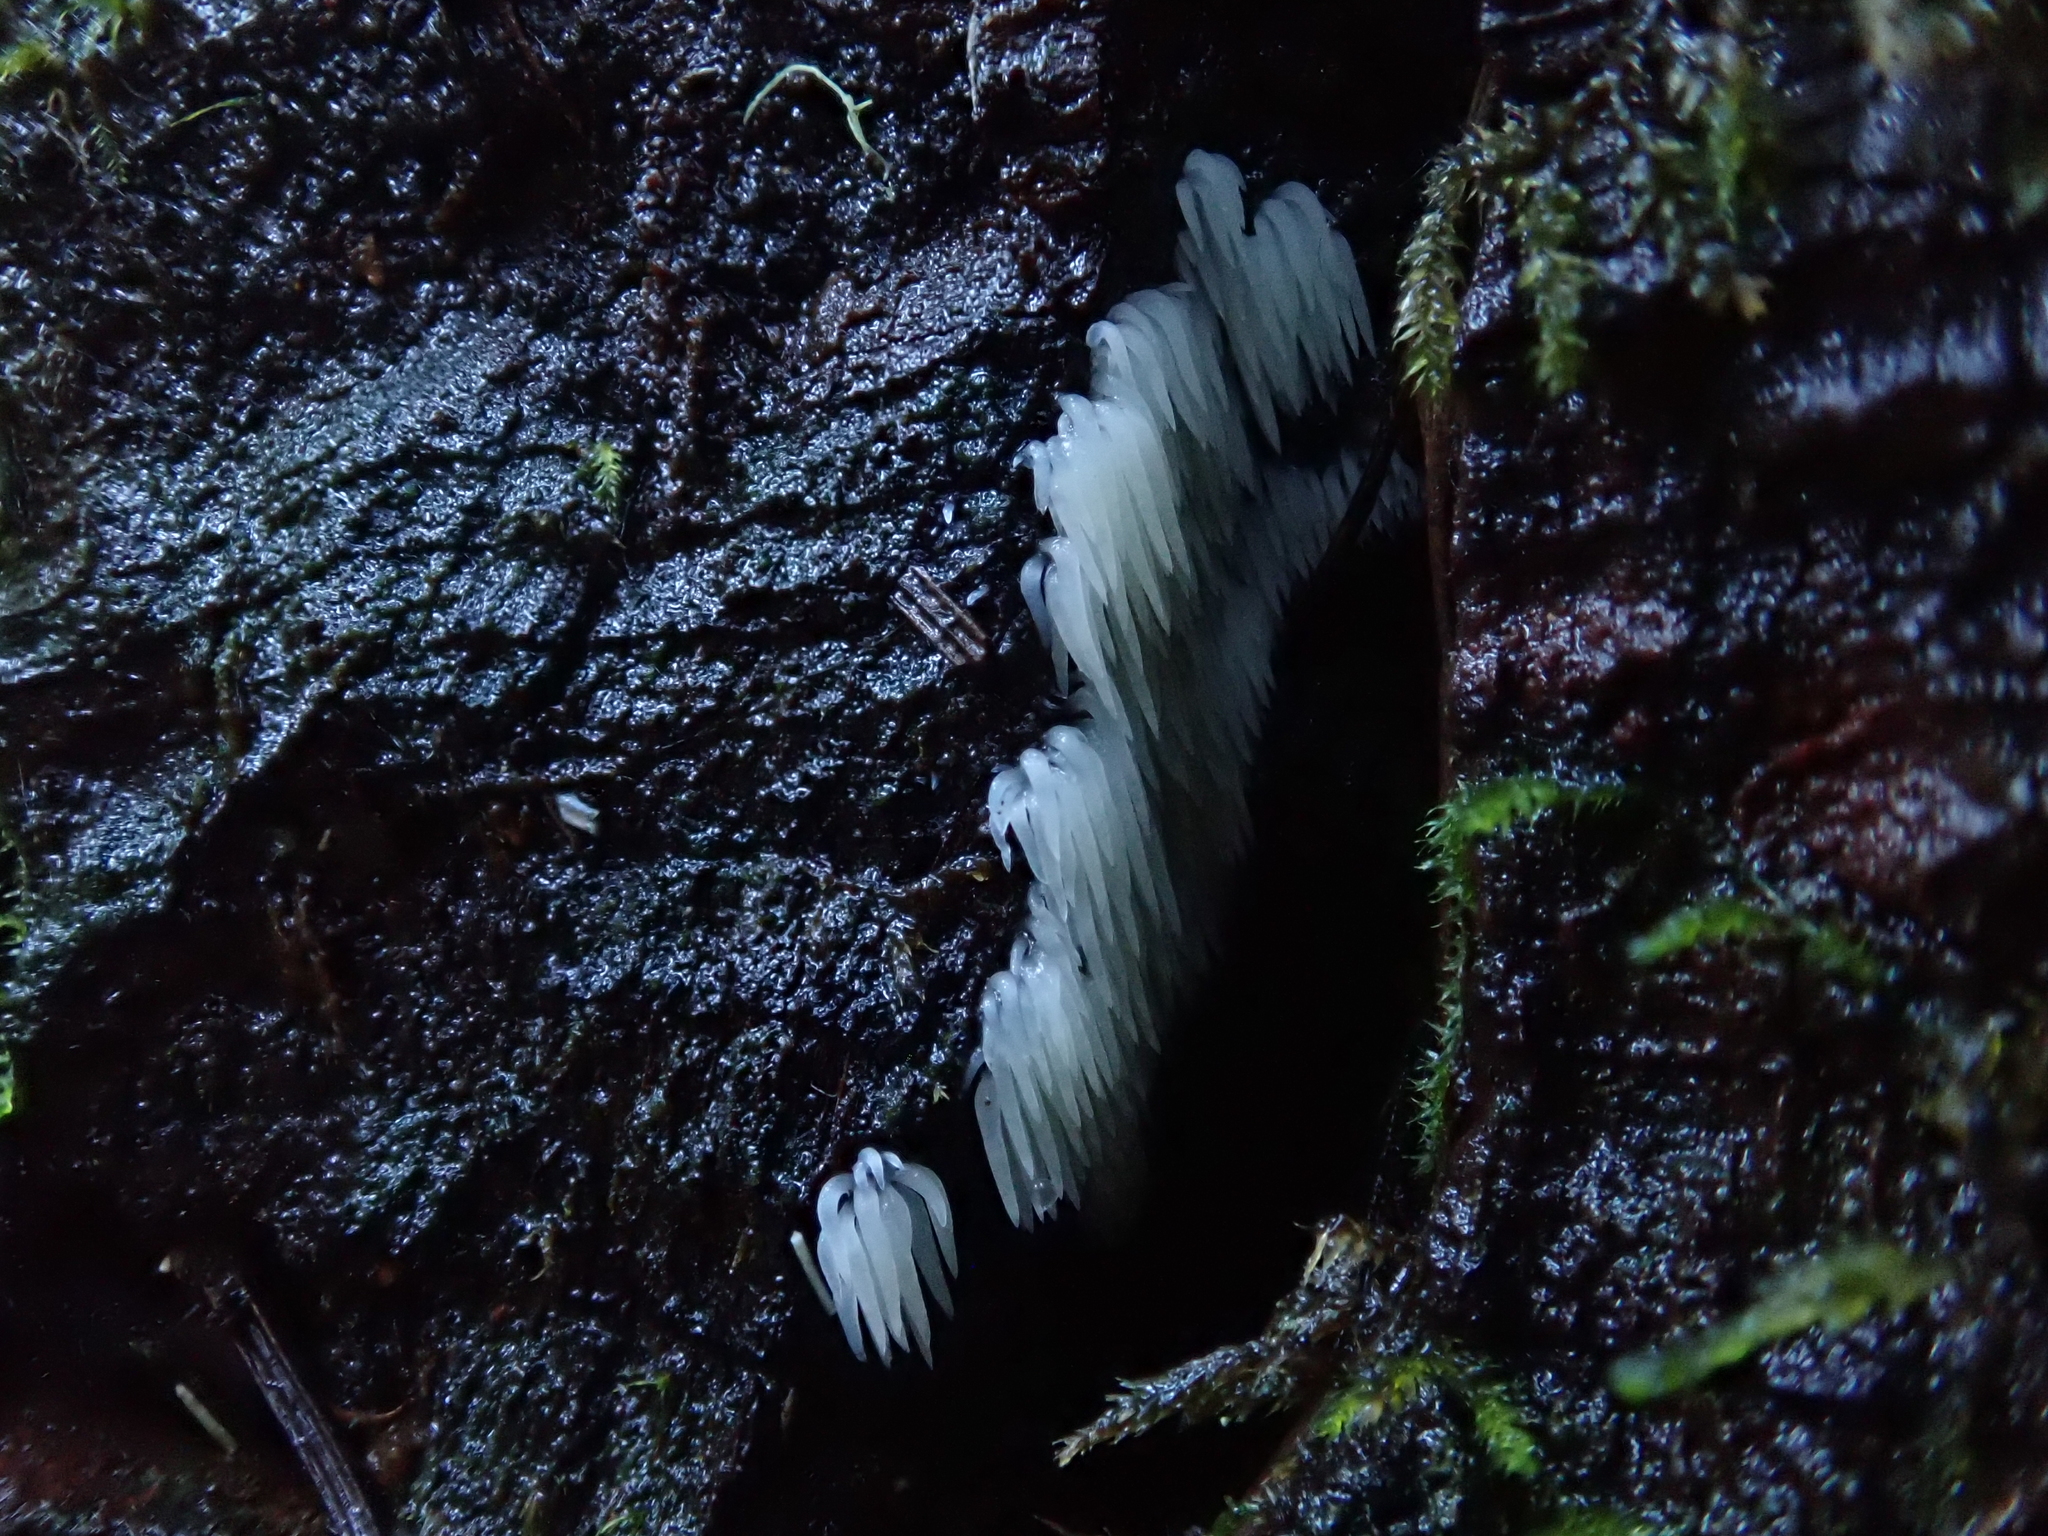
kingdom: Fungi
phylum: Basidiomycota
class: Agaricomycetes
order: Agaricales
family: Clavariaceae
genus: Mucronella
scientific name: Mucronella calva
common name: Swarming spine
